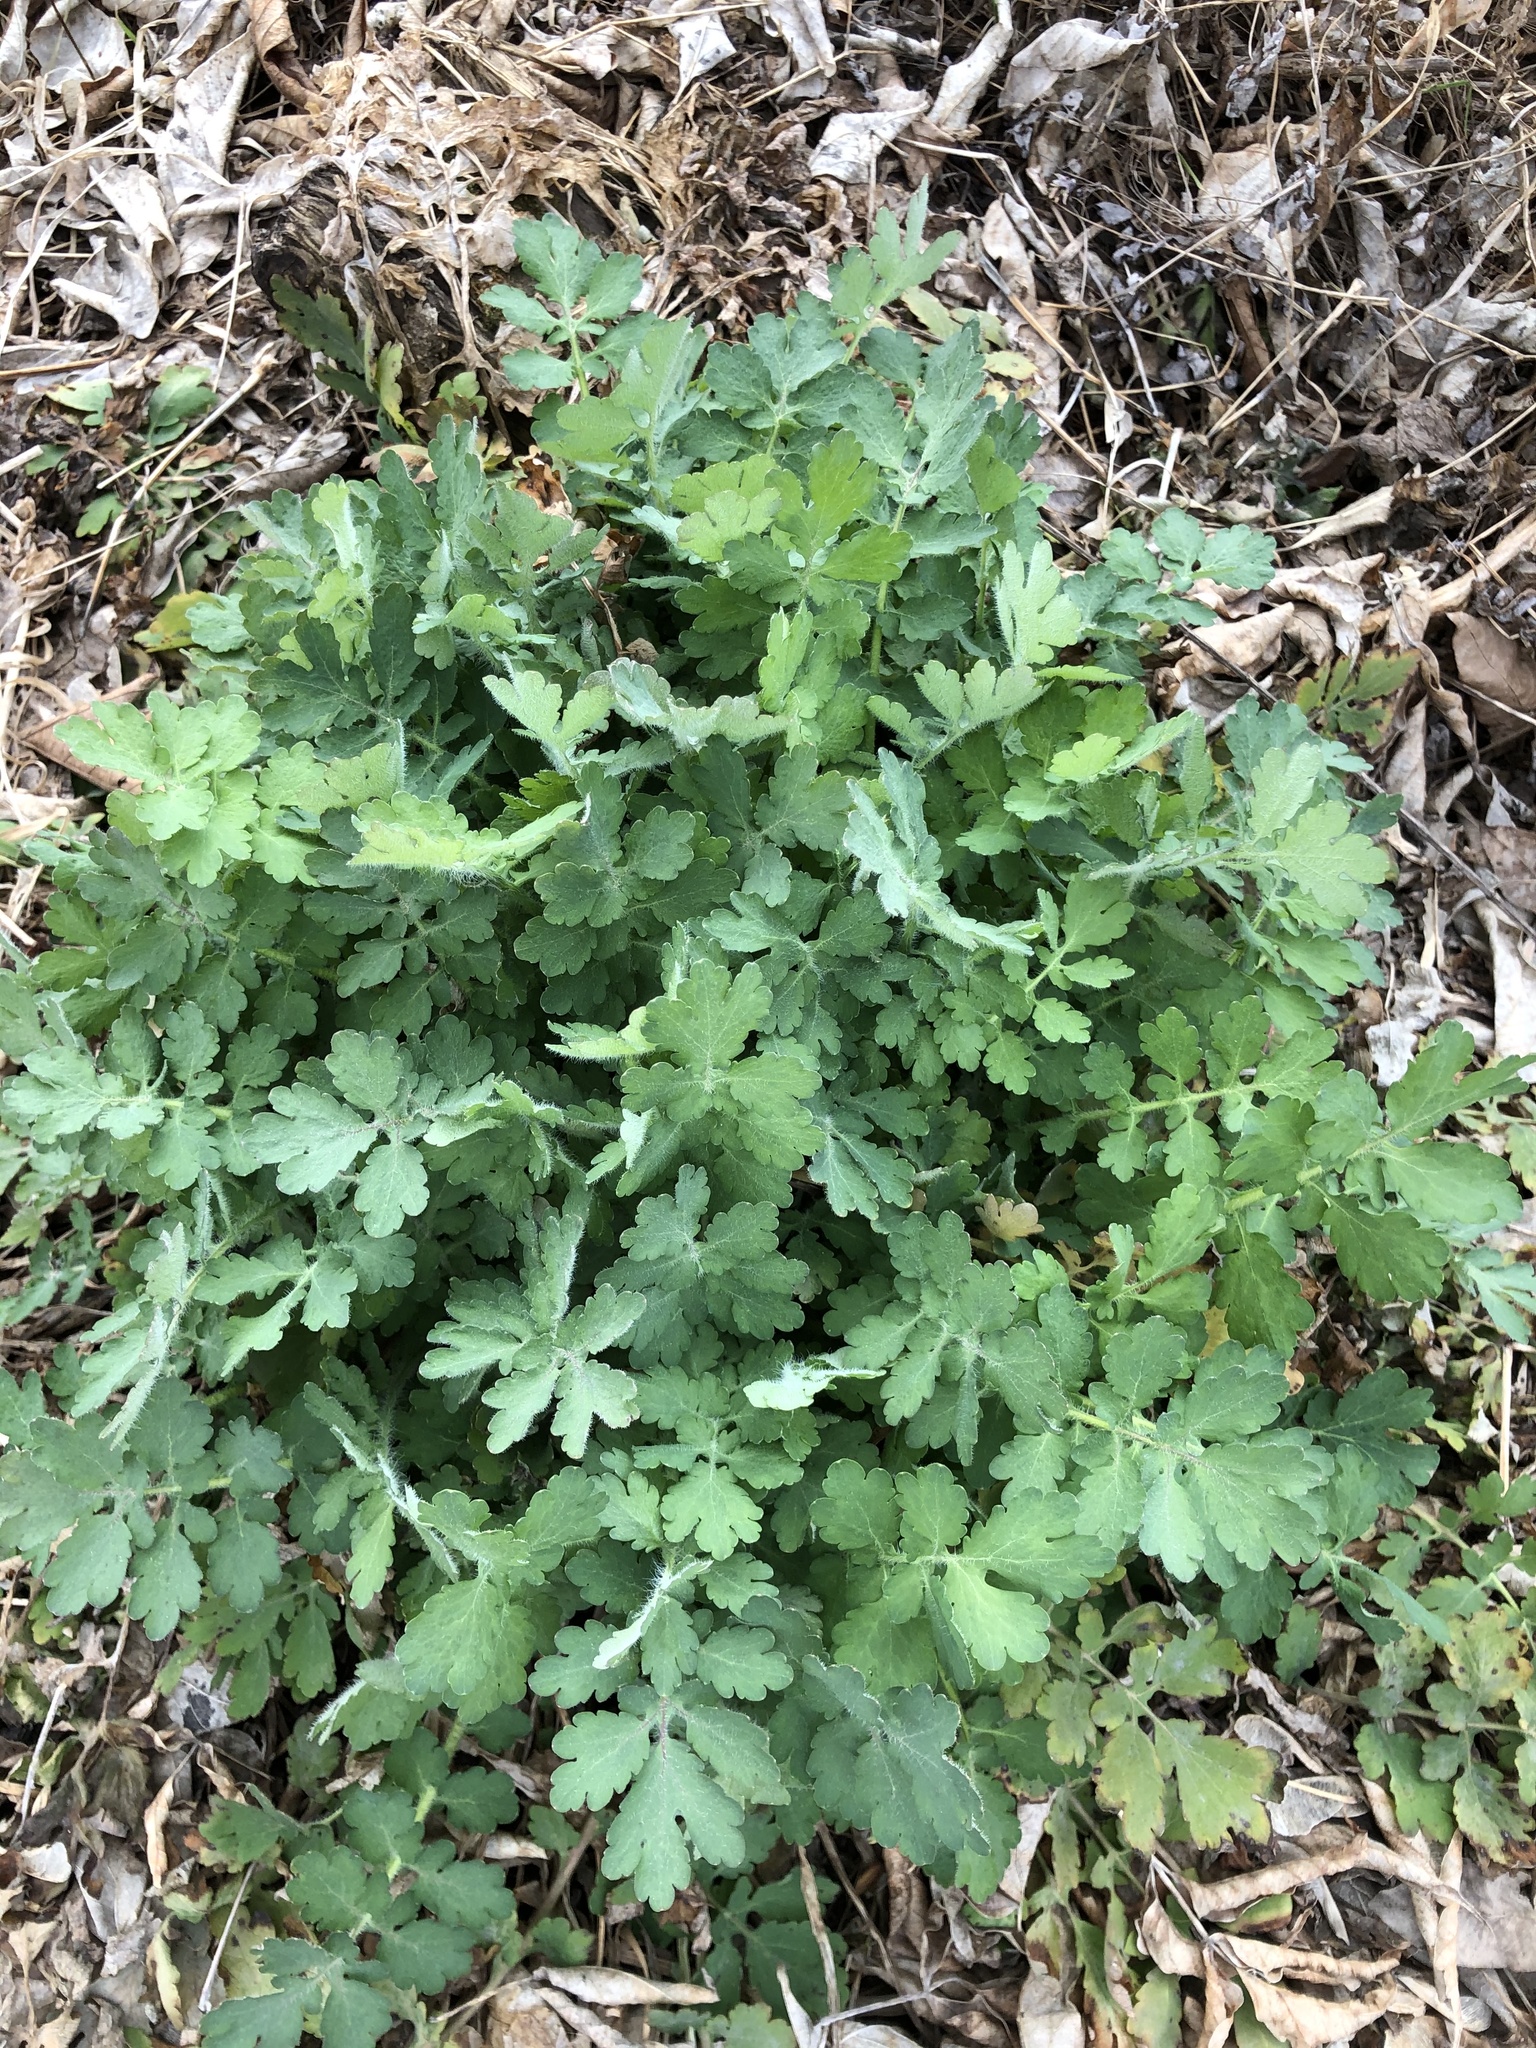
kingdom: Plantae
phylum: Tracheophyta
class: Magnoliopsida
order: Ranunculales
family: Papaveraceae
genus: Chelidonium
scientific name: Chelidonium majus
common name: Greater celandine
